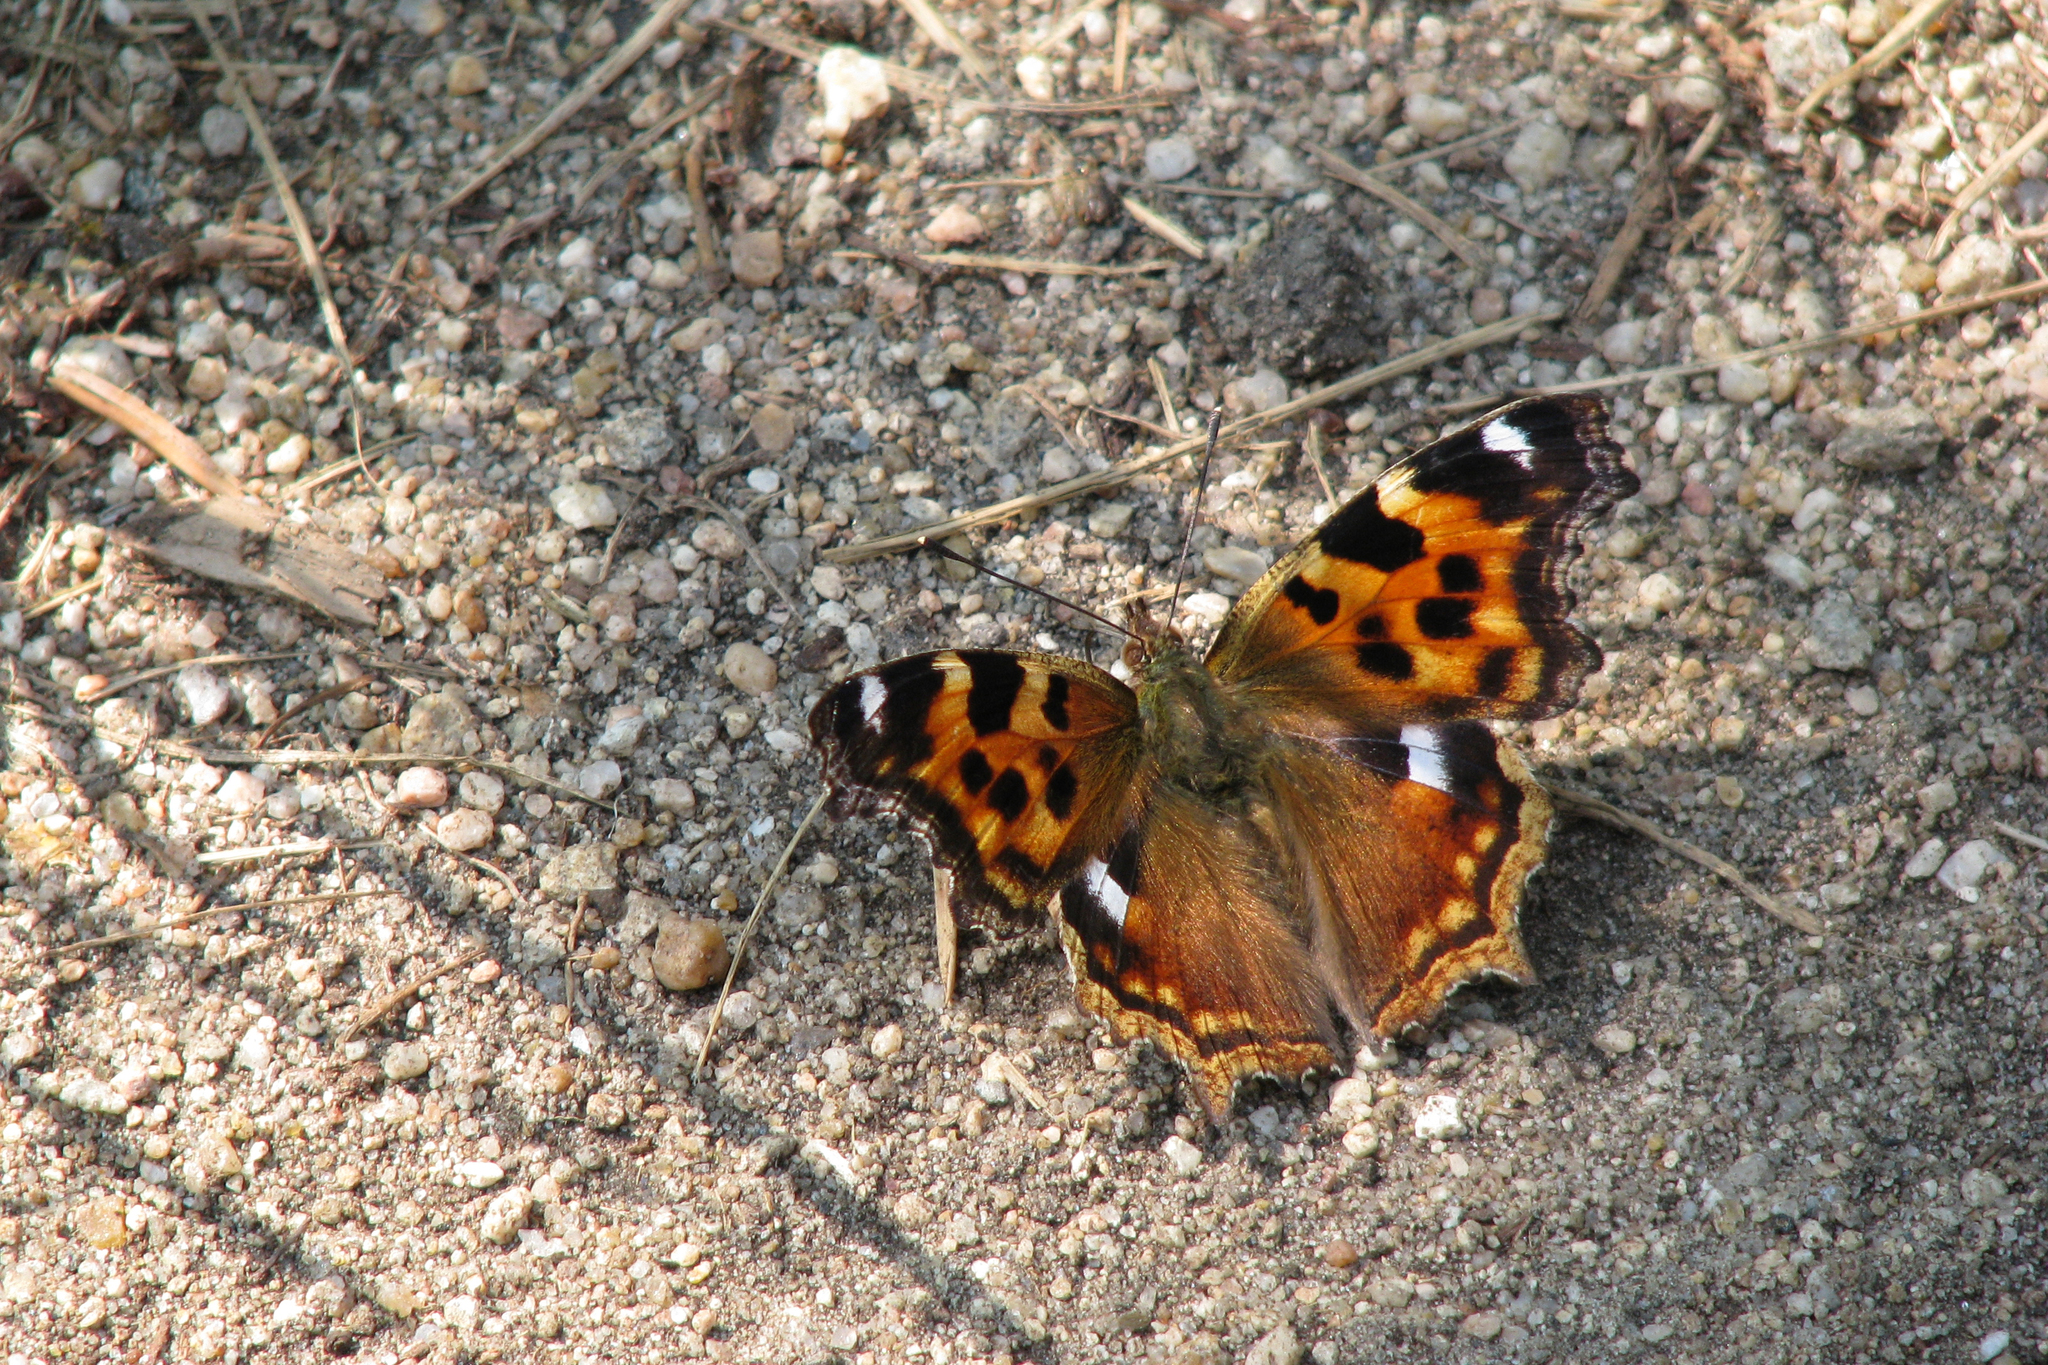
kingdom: Animalia
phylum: Arthropoda
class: Insecta
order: Lepidoptera
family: Nymphalidae
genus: Polygonia
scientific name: Polygonia vaualbum
